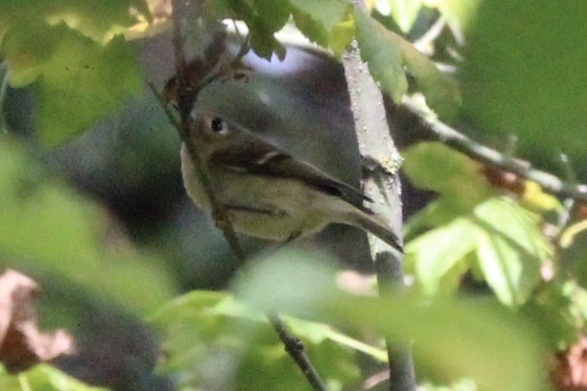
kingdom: Animalia
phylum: Chordata
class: Aves
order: Passeriformes
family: Regulidae
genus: Regulus
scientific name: Regulus calendula
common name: Ruby-crowned kinglet
